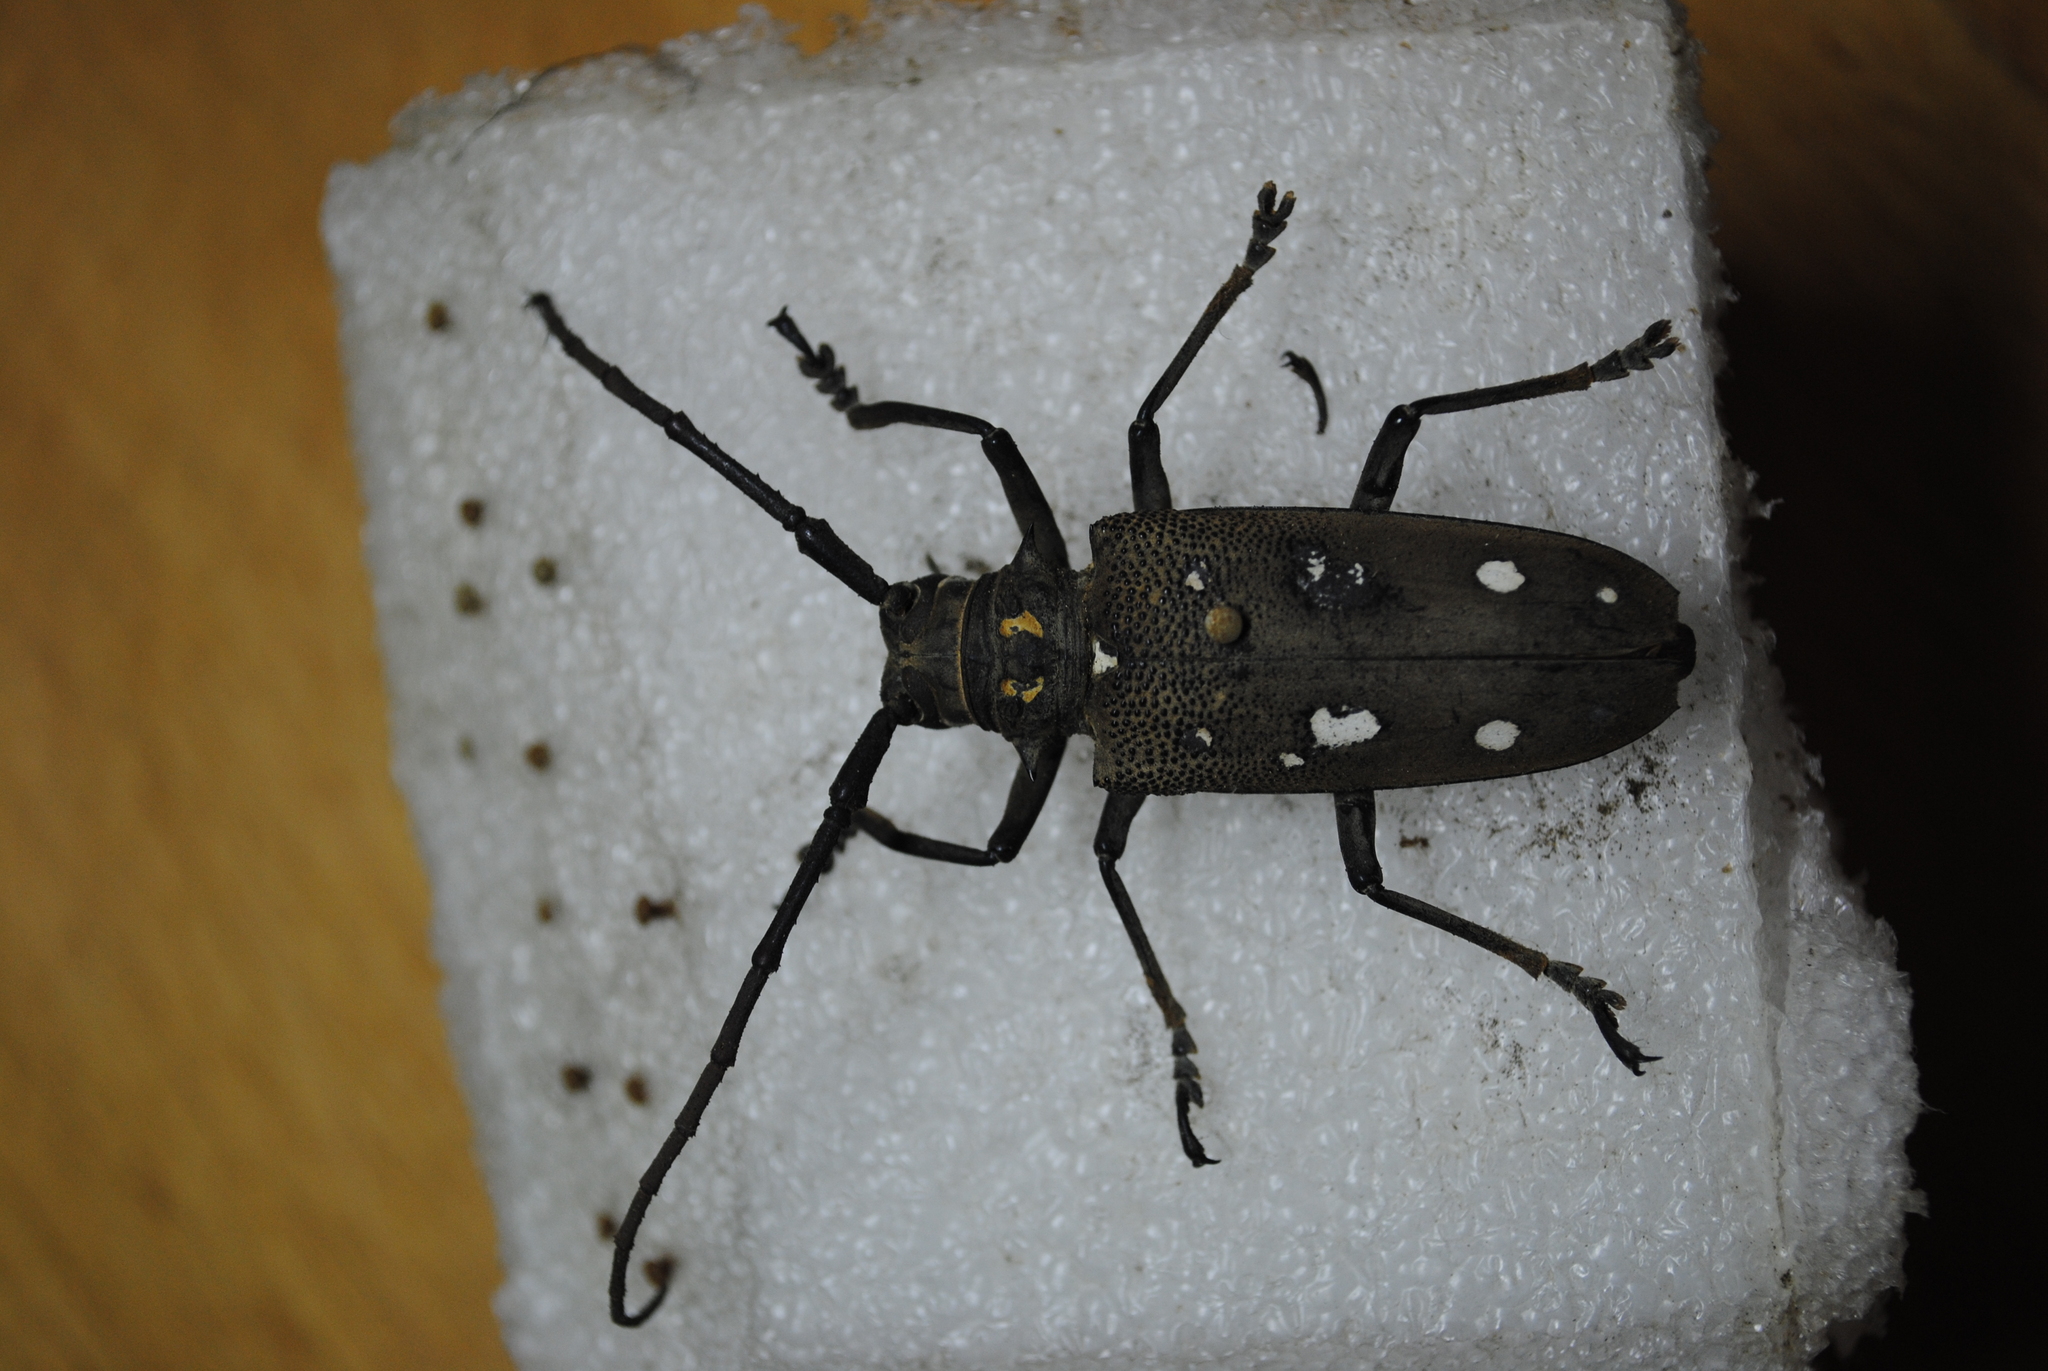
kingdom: Animalia
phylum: Arthropoda
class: Insecta
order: Coleoptera
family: Cerambycidae
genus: Batocera
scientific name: Batocera rubus
